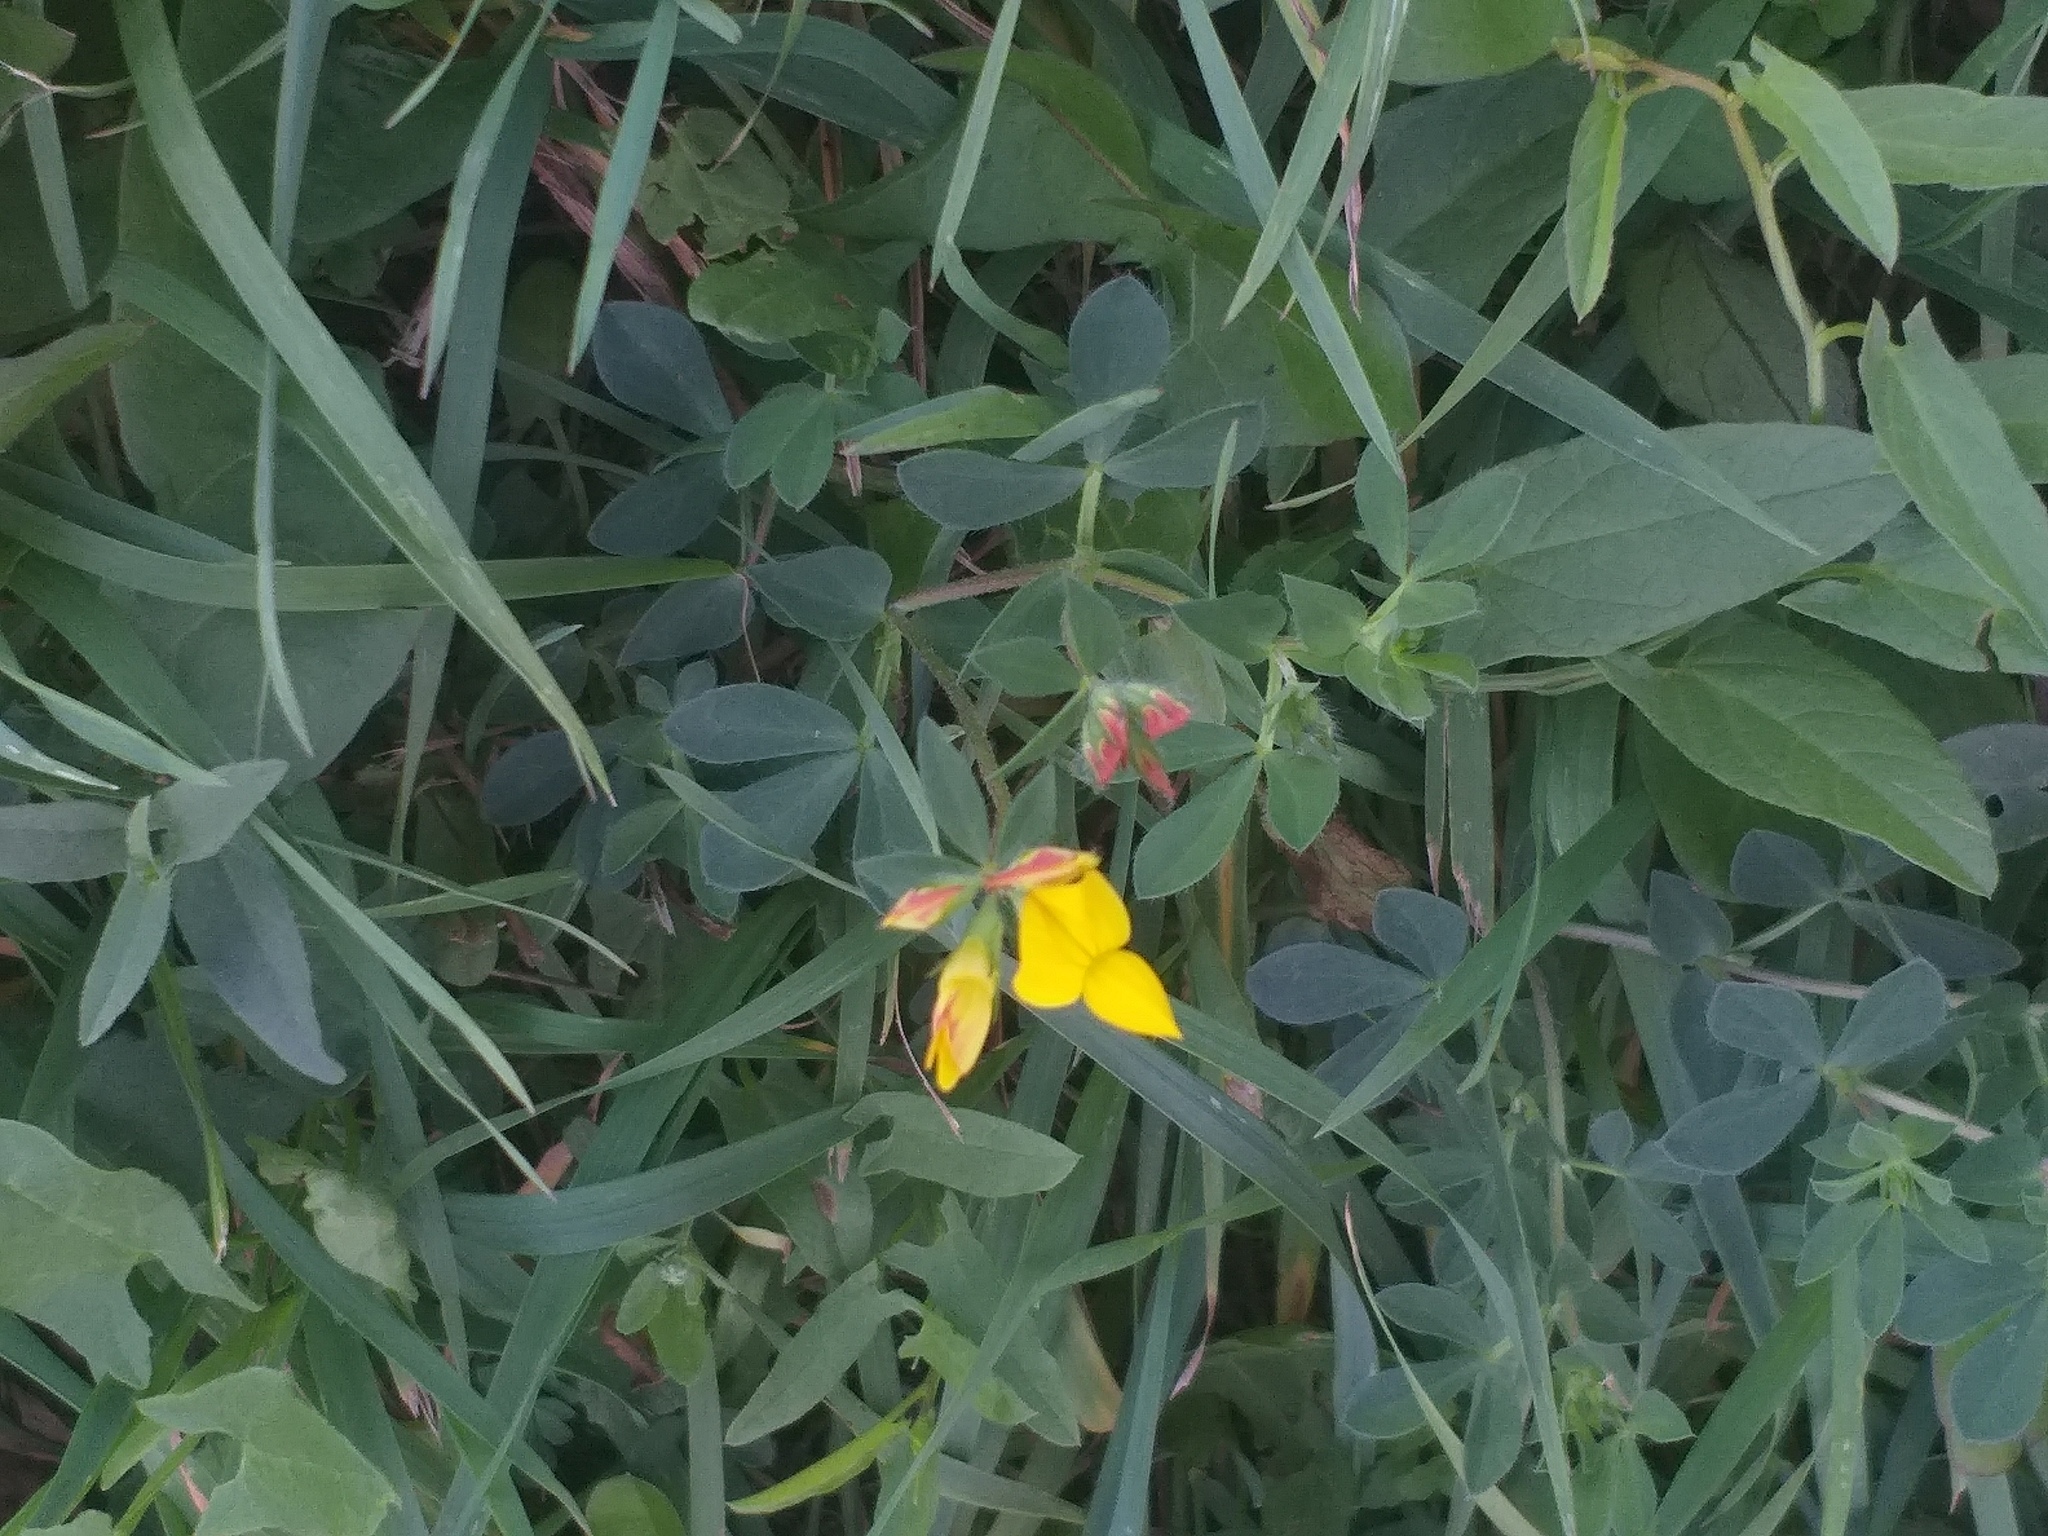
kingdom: Plantae
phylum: Tracheophyta
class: Magnoliopsida
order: Fabales
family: Fabaceae
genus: Lotus
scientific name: Lotus corniculatus
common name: Common bird's-foot-trefoil
